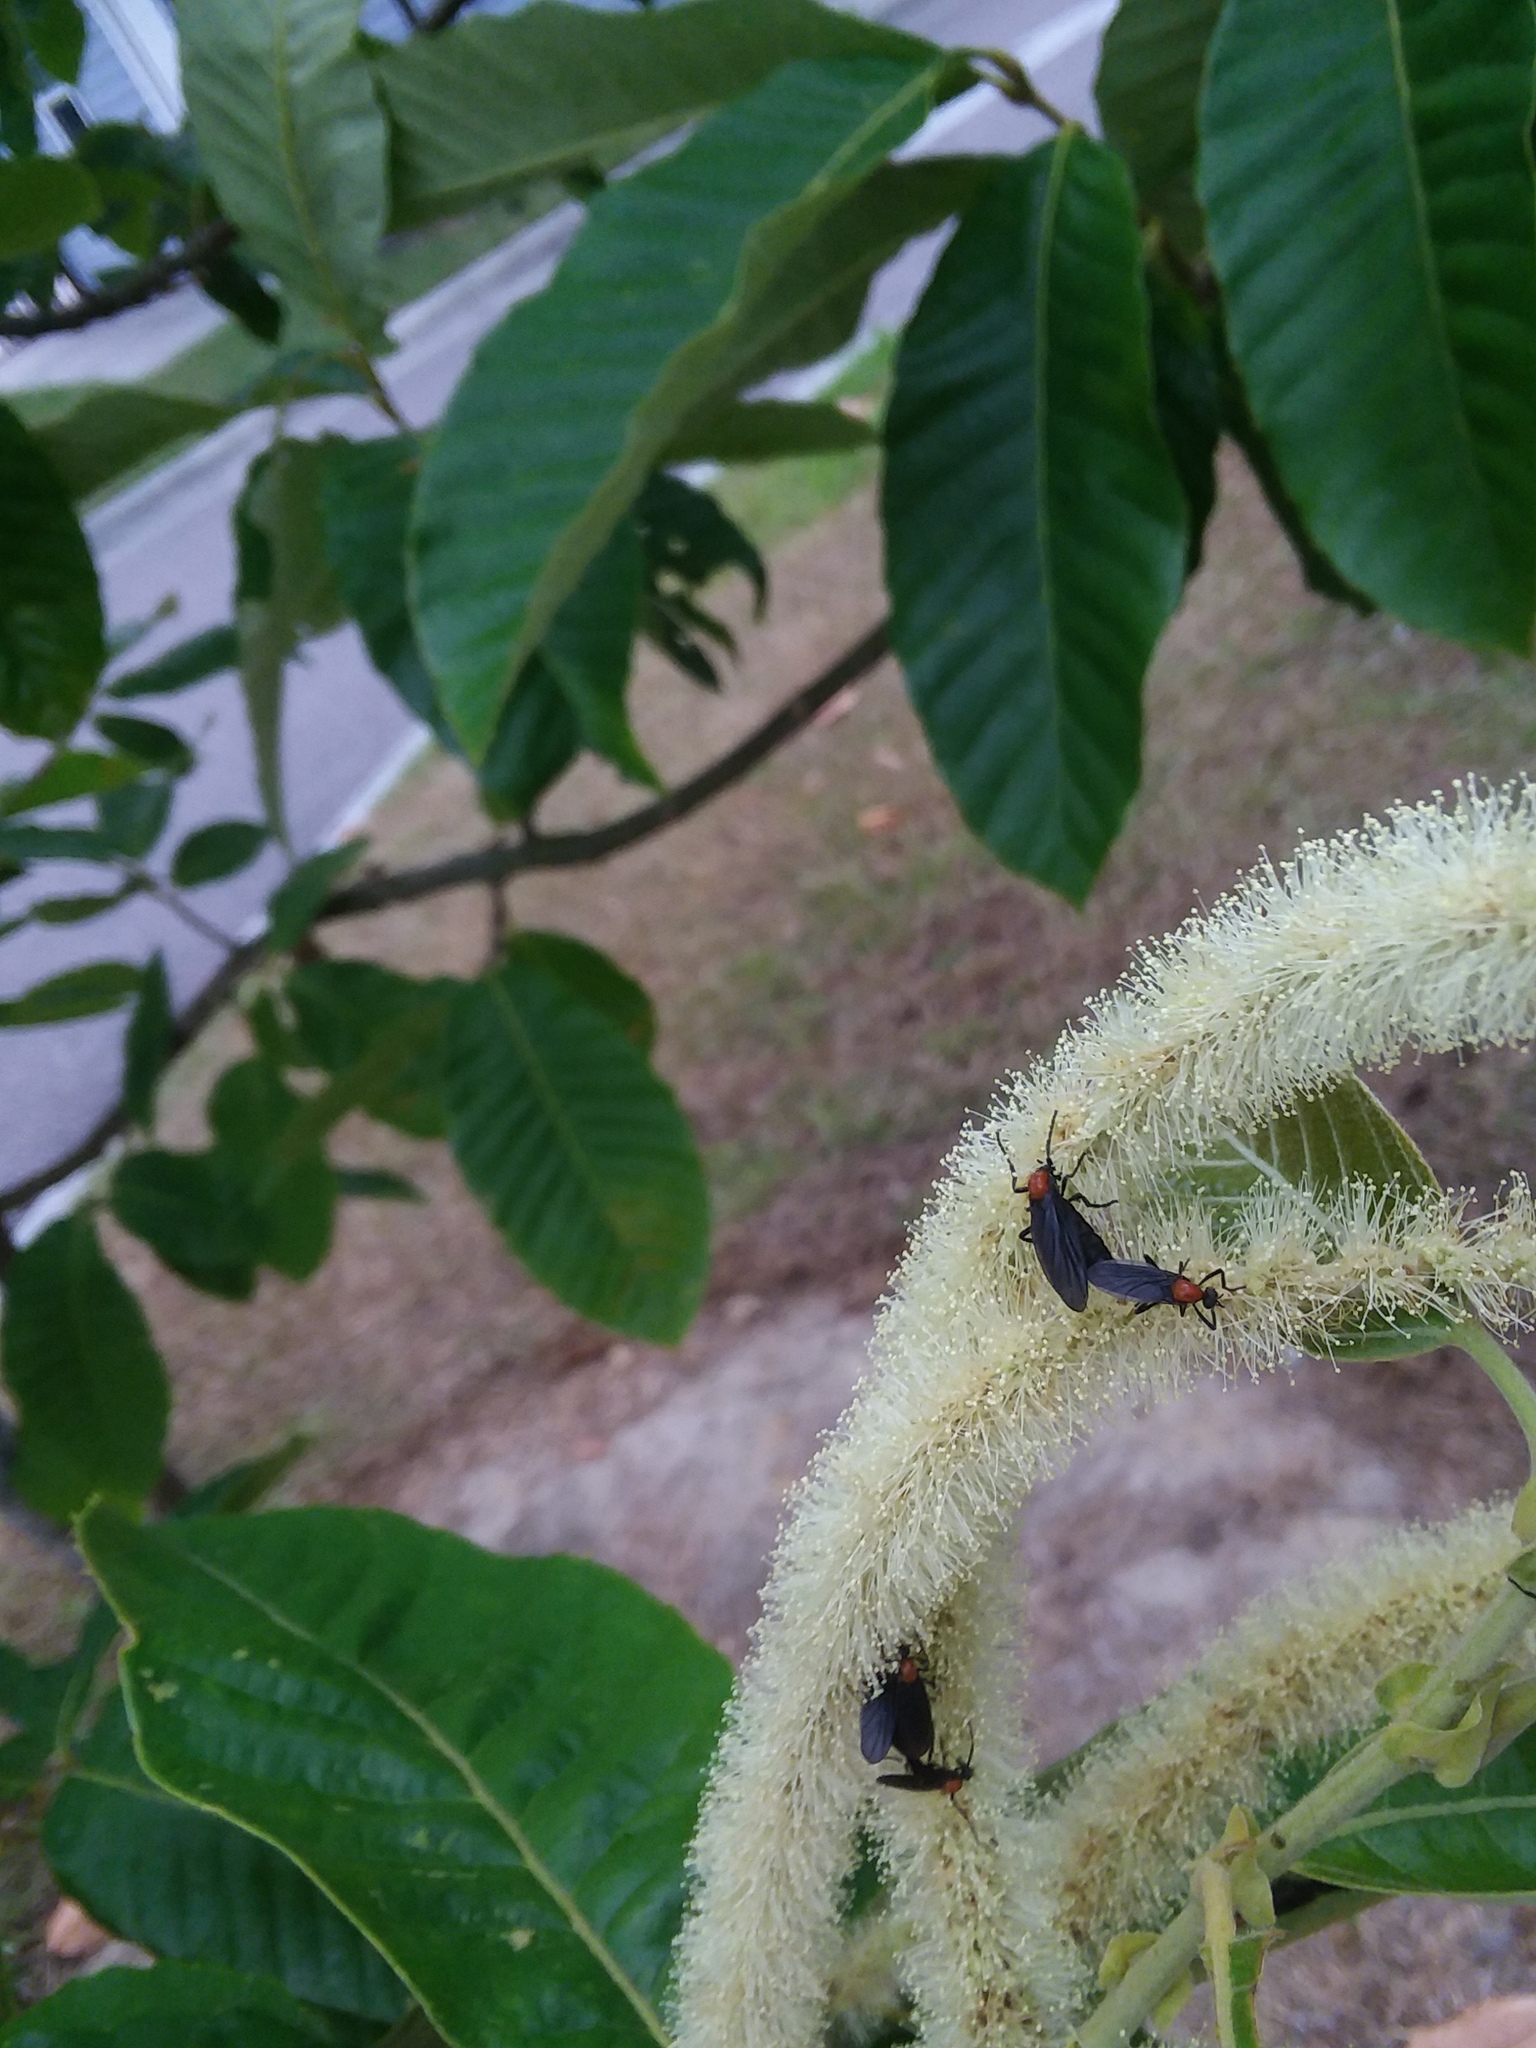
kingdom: Animalia
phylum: Arthropoda
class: Insecta
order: Diptera
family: Bibionidae
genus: Plecia
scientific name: Plecia nearctica
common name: March fly
